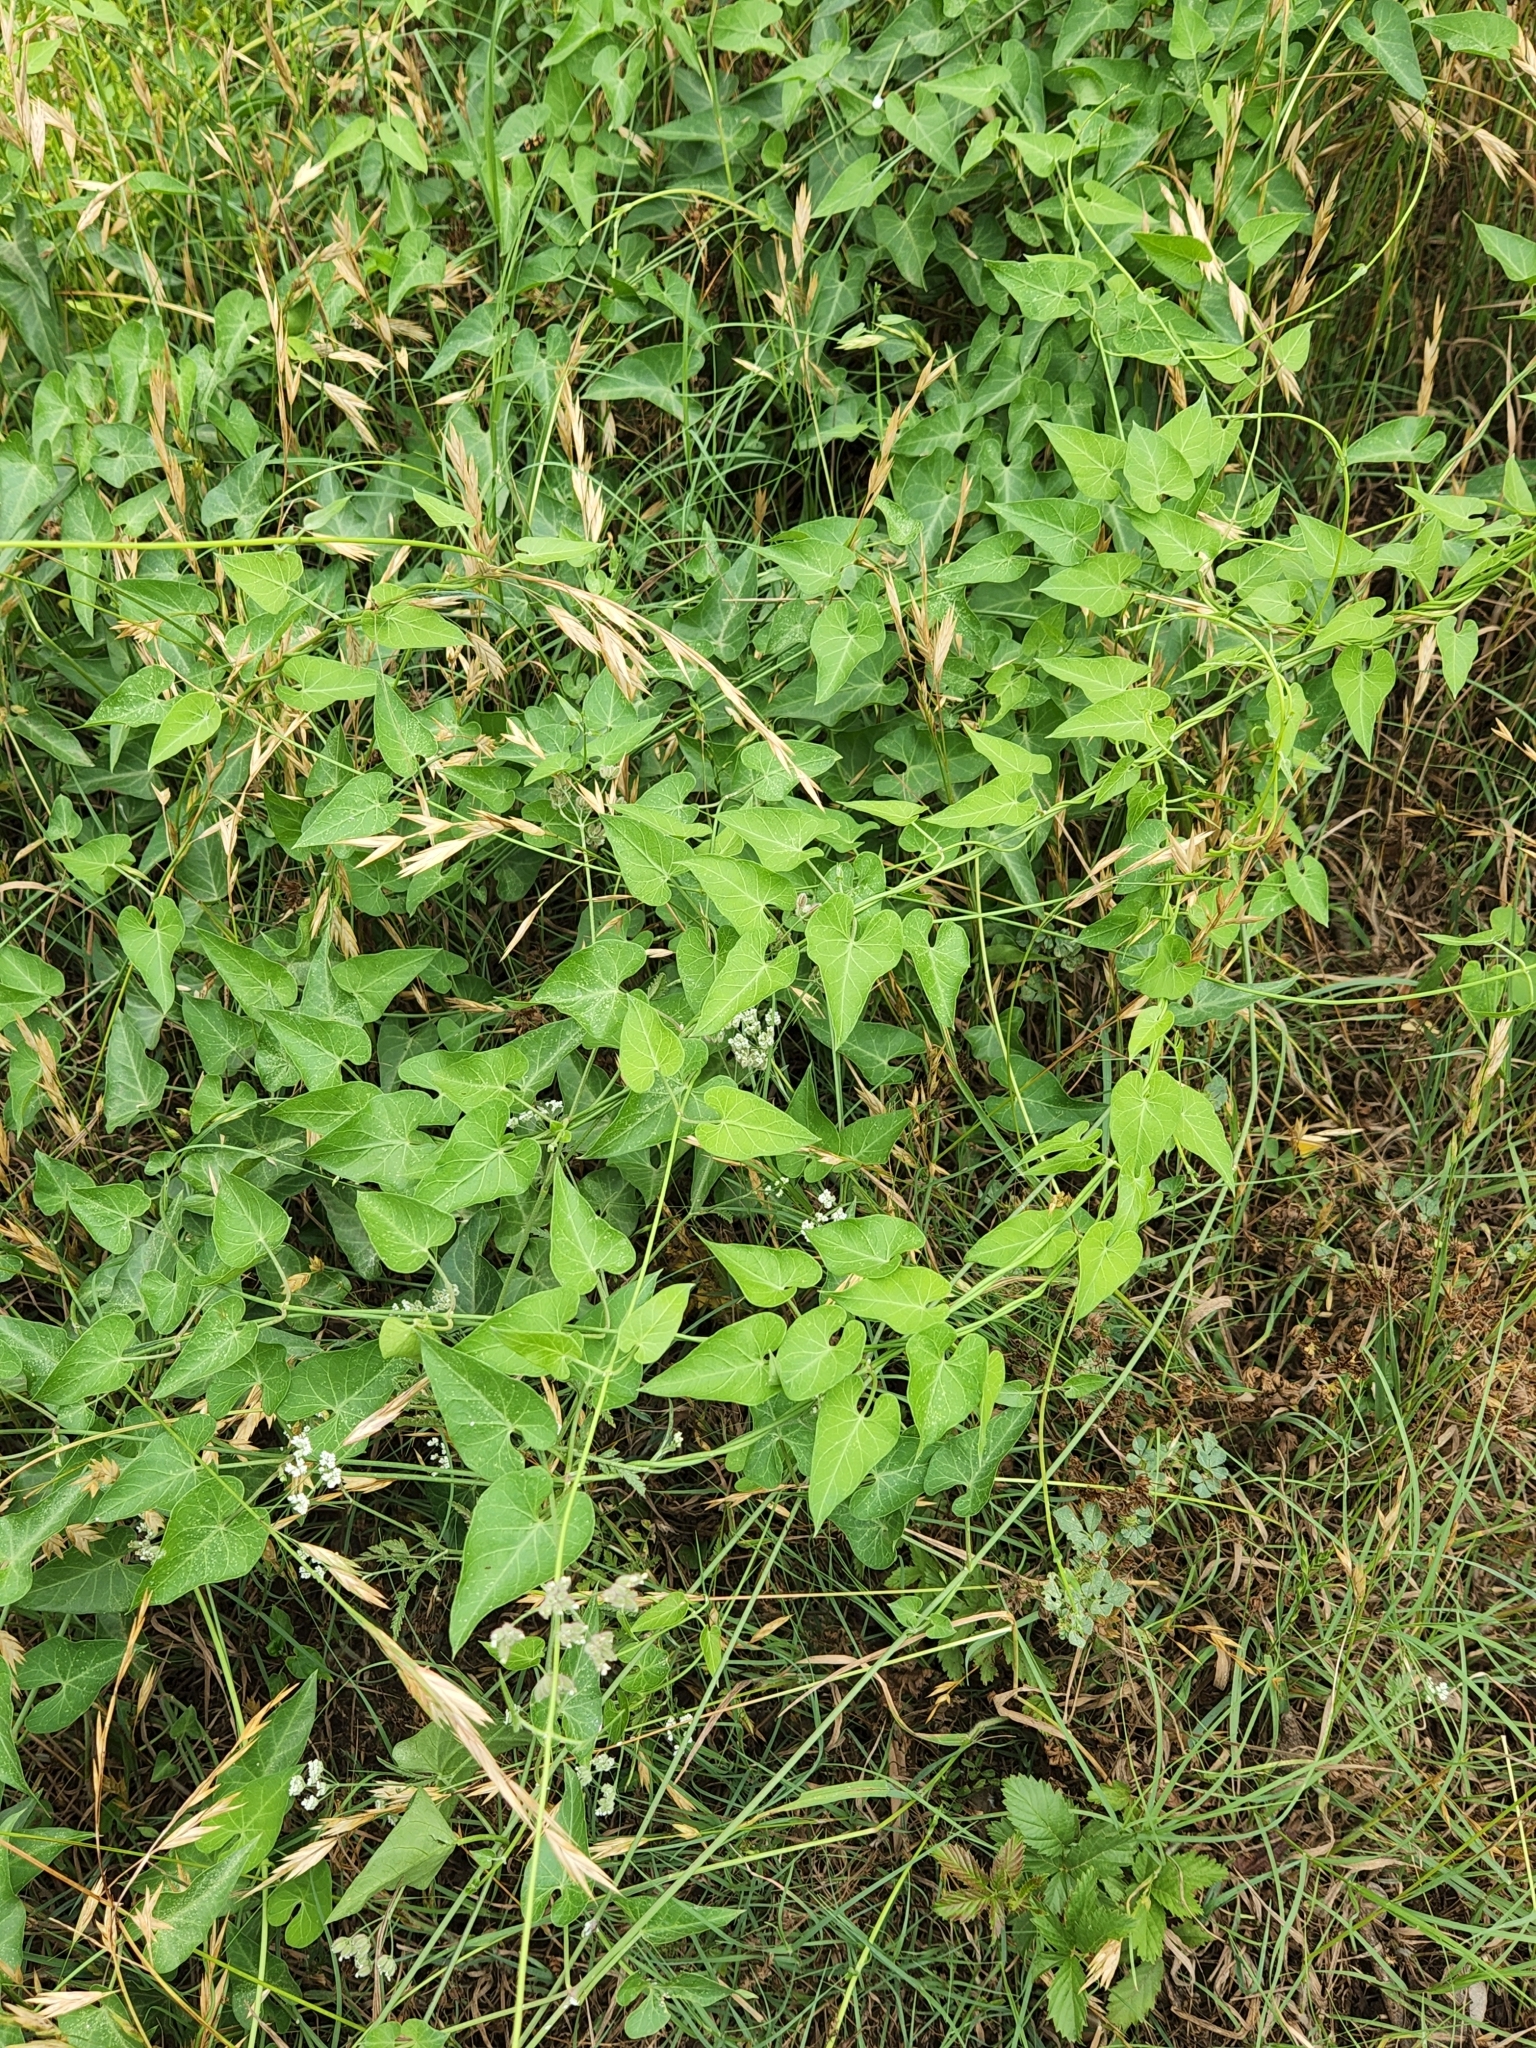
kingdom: Plantae
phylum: Tracheophyta
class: Magnoliopsida
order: Gentianales
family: Apocynaceae
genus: Funastrum
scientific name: Funastrum cynanchoides
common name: Climbing-milkweed
